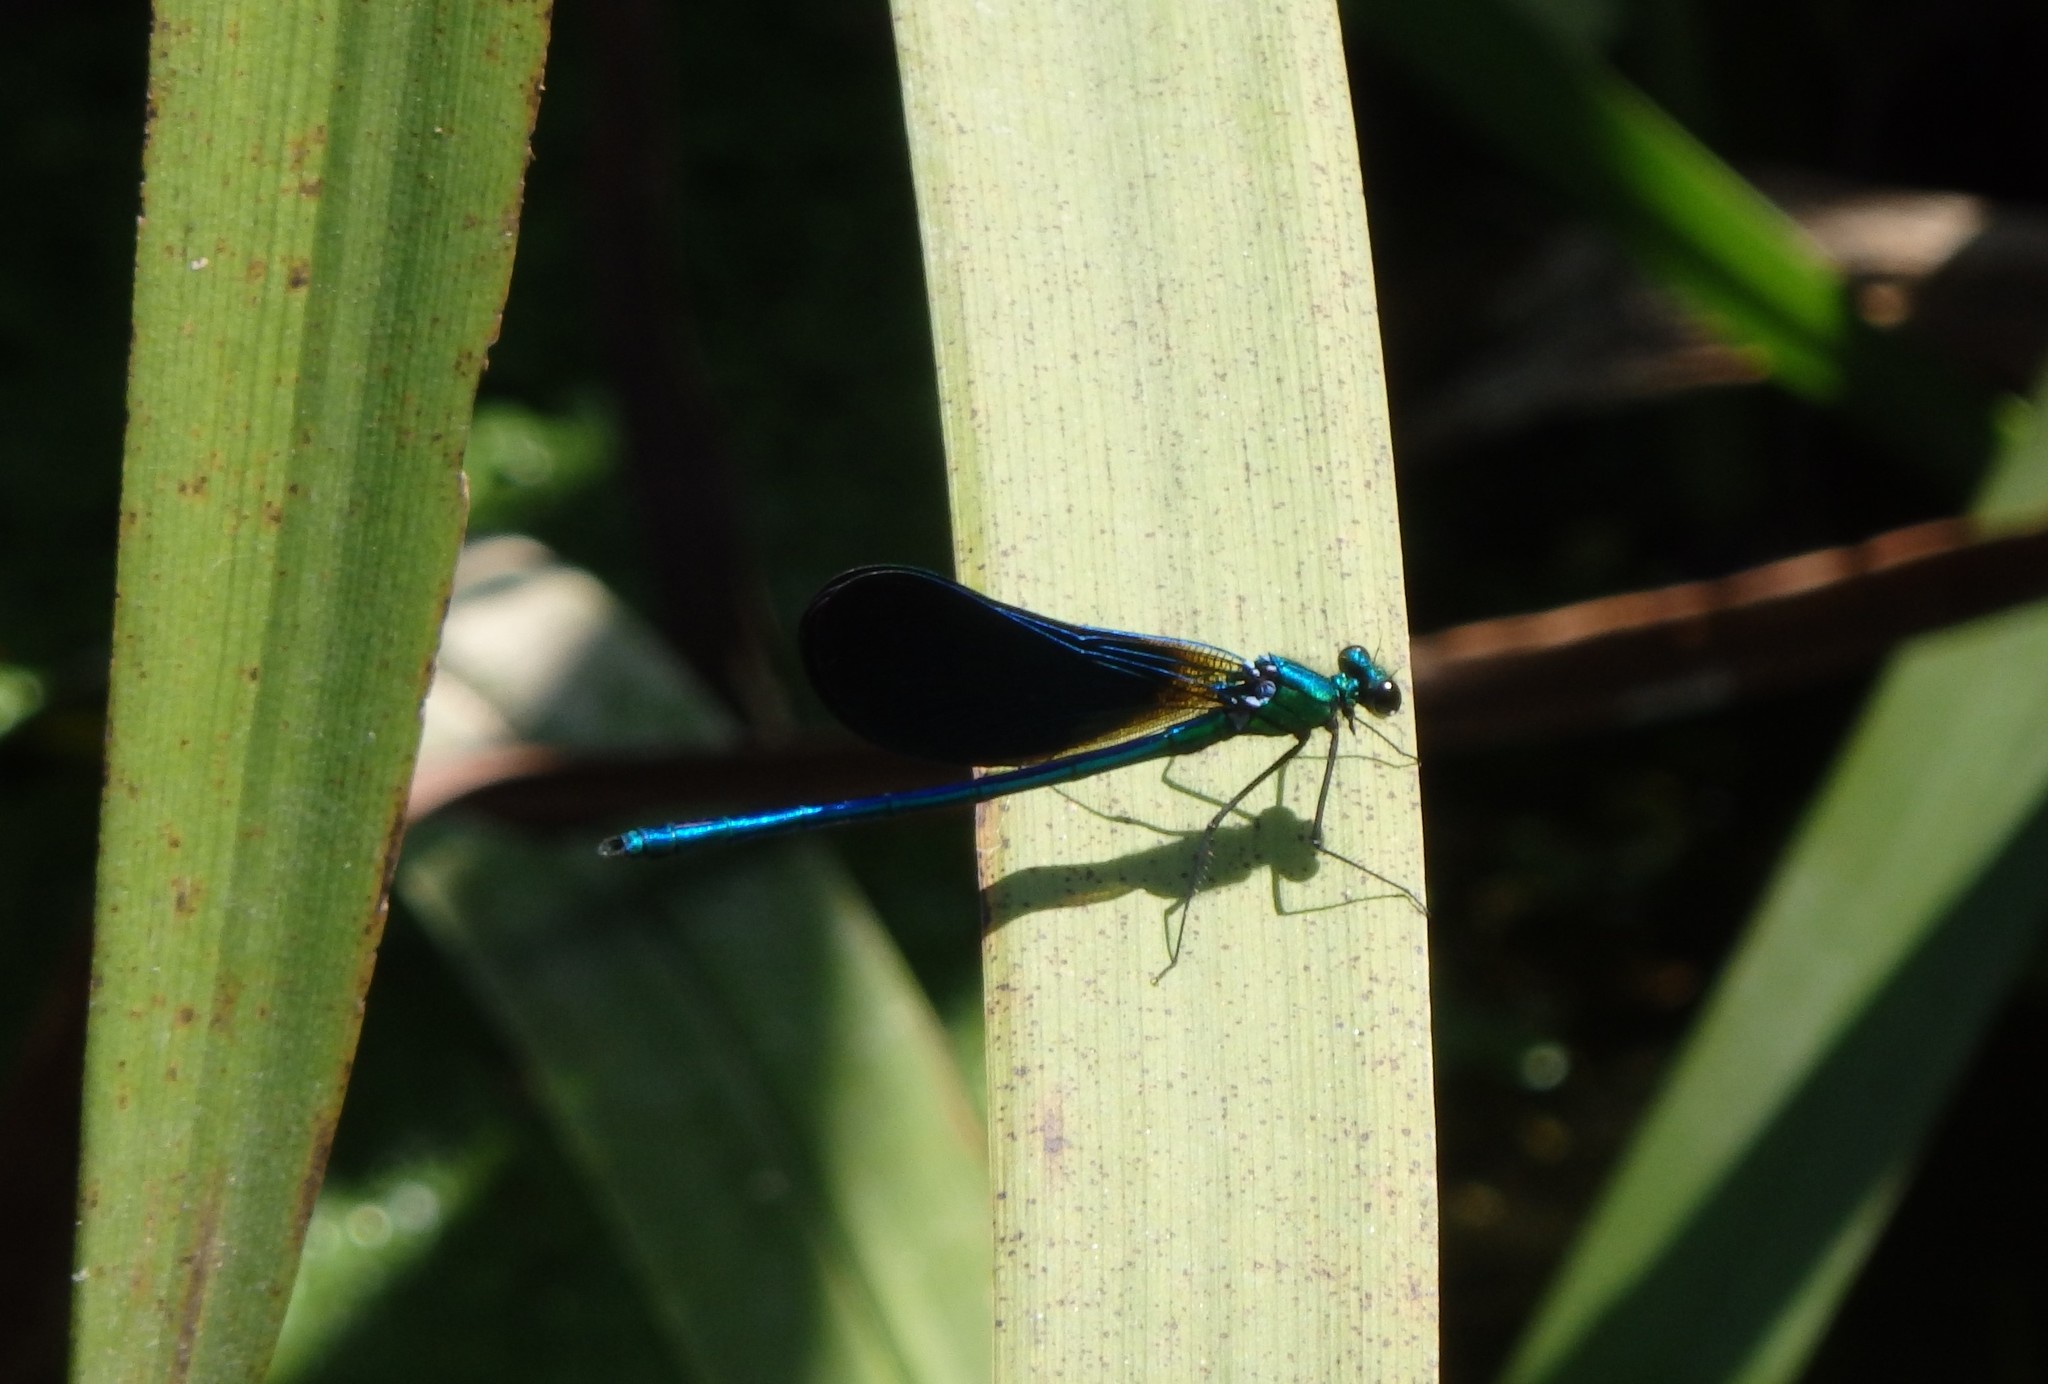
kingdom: Animalia
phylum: Arthropoda
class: Insecta
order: Odonata
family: Calopterygidae
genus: Calopteryx
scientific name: Calopteryx virgo
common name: Beautiful demoiselle
